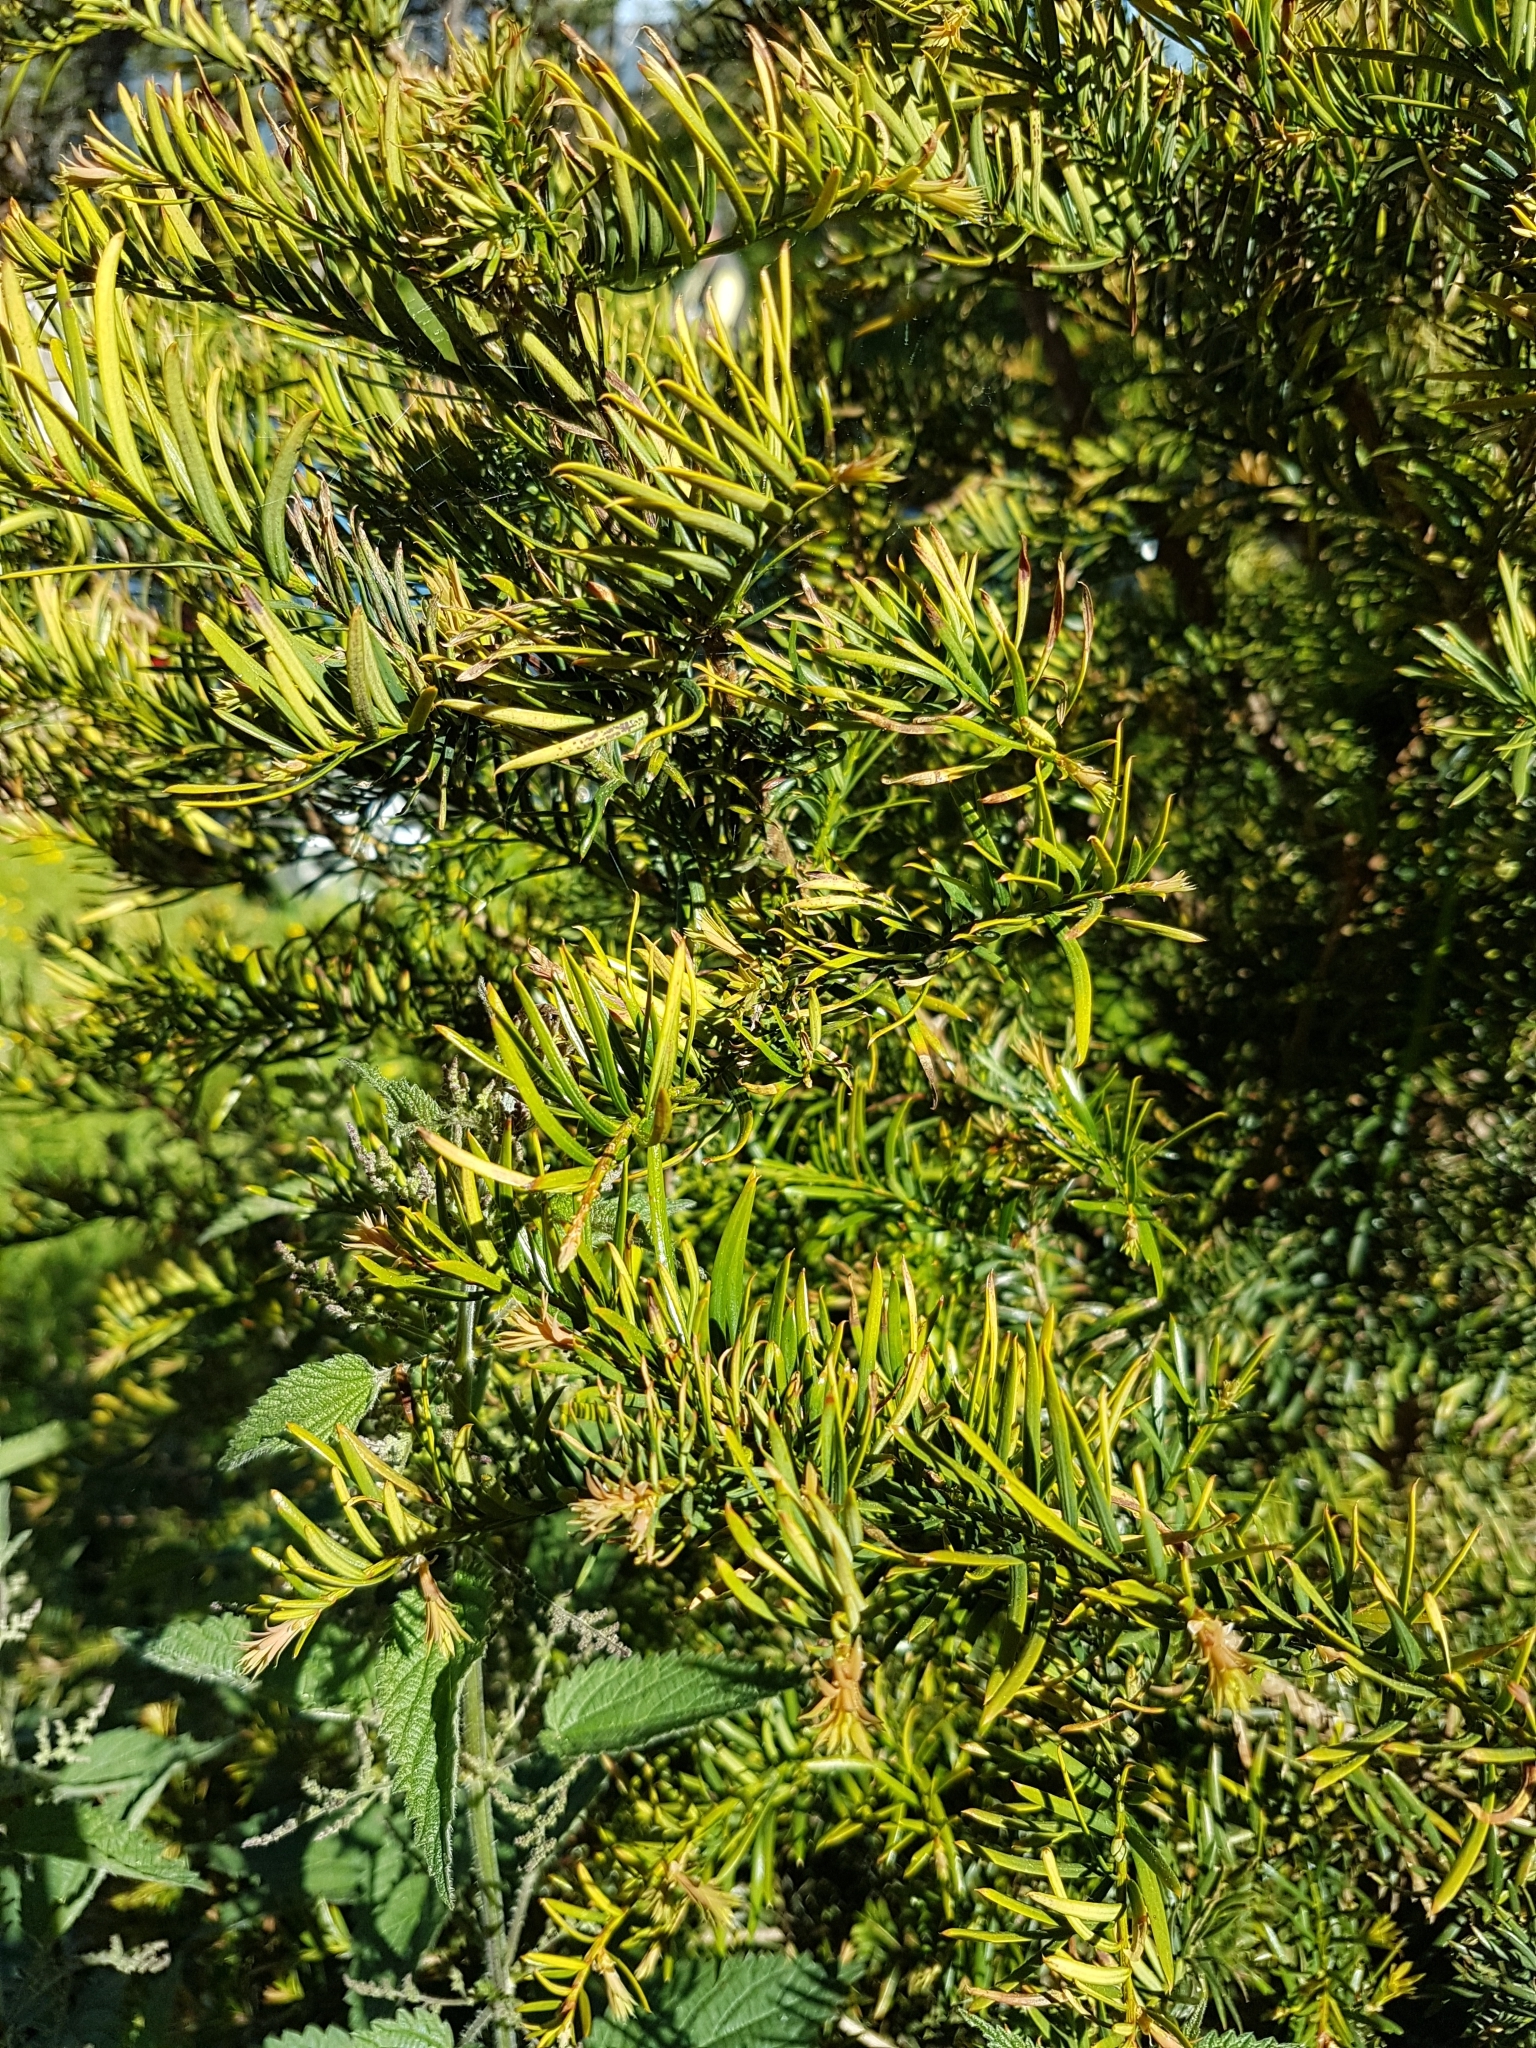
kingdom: Plantae
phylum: Tracheophyta
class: Pinopsida
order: Pinales
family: Taxaceae
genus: Taxus
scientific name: Taxus baccata
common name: Yew
